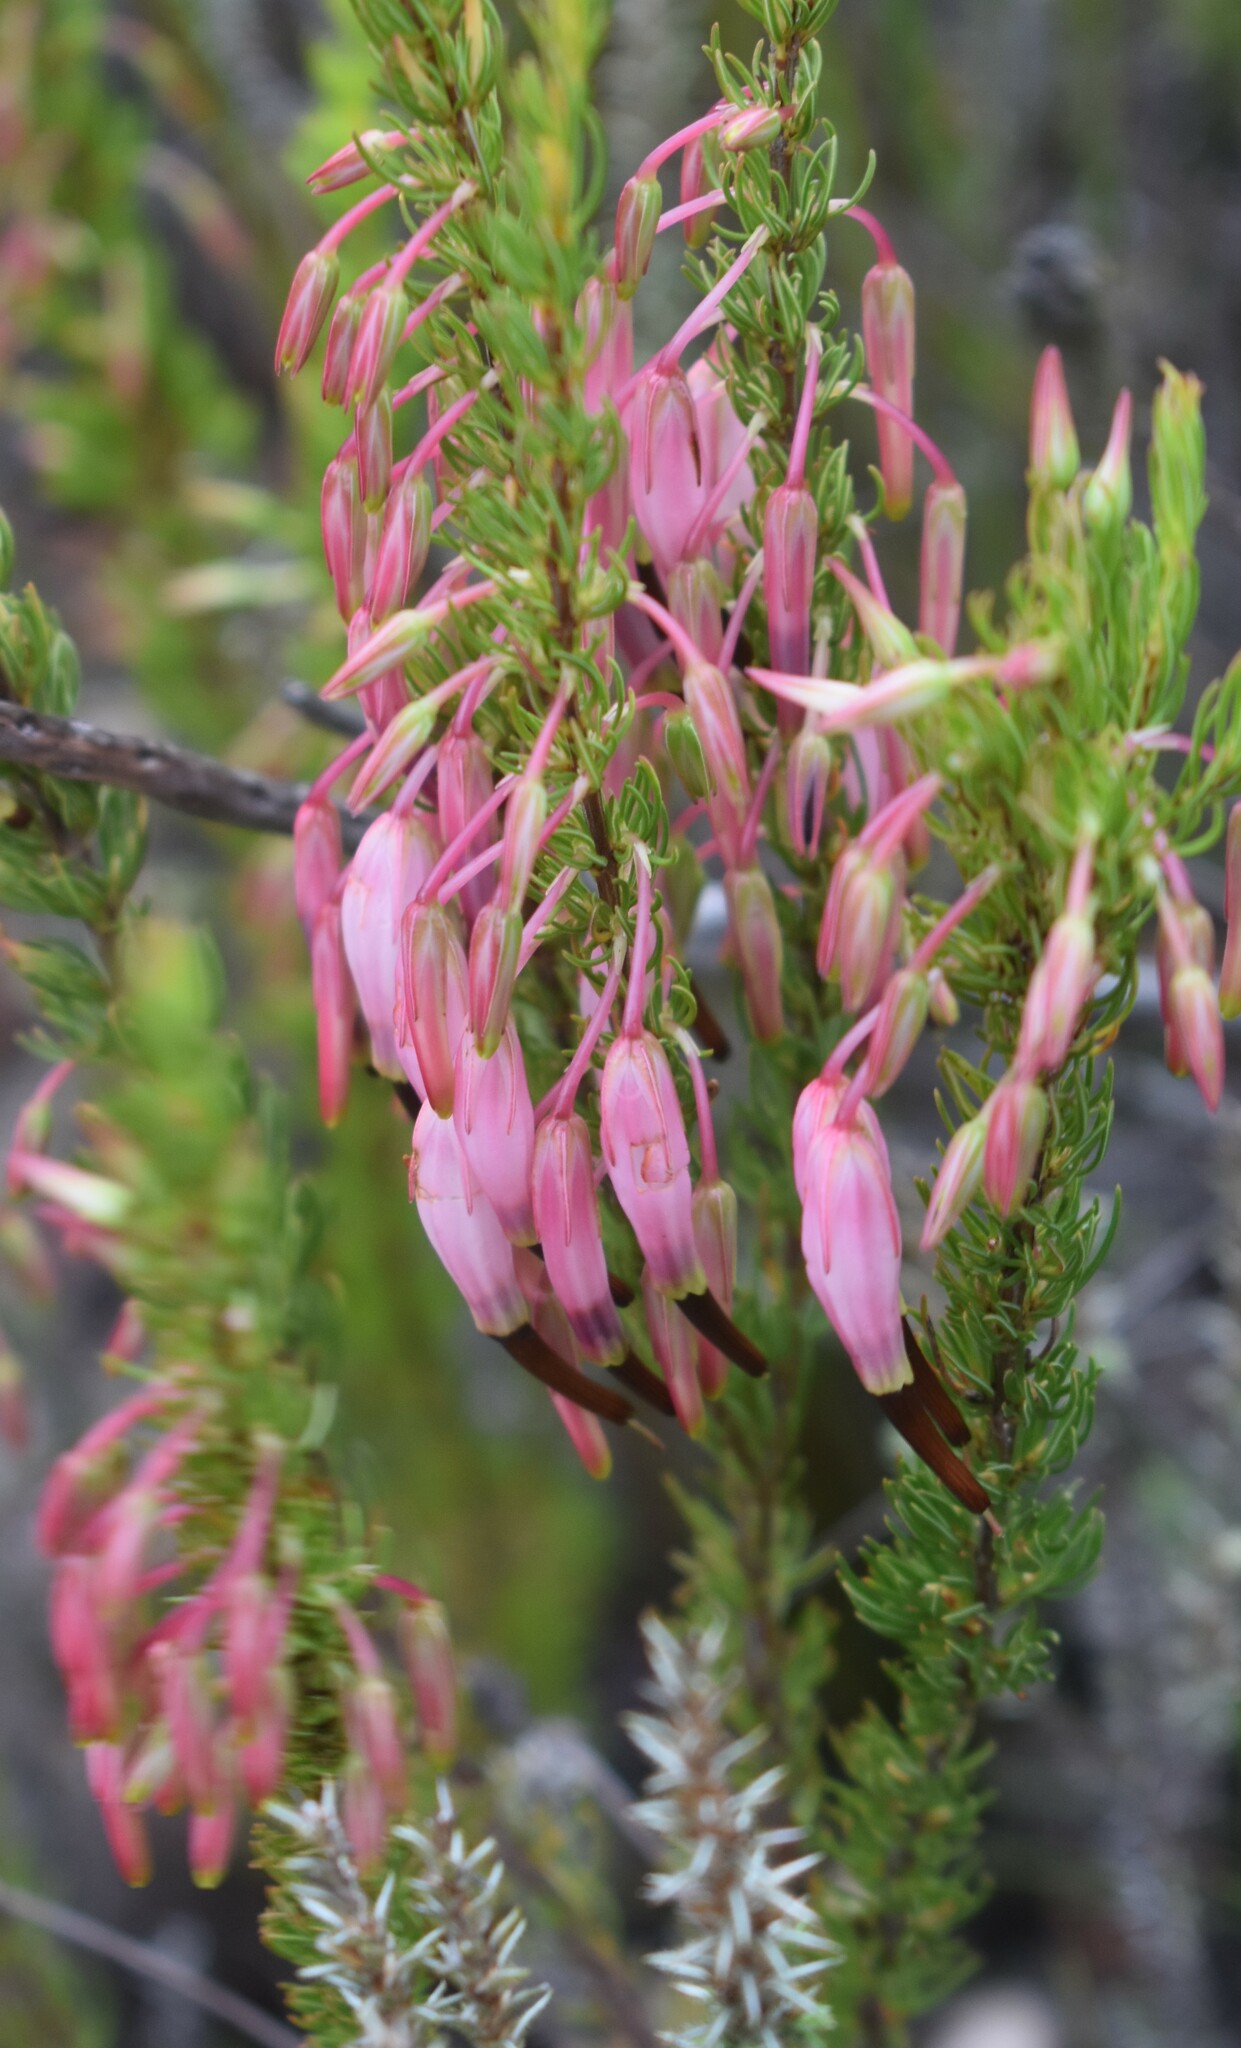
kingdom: Plantae
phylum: Tracheophyta
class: Magnoliopsida
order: Ericales
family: Ericaceae
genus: Erica
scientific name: Erica plukenetii
